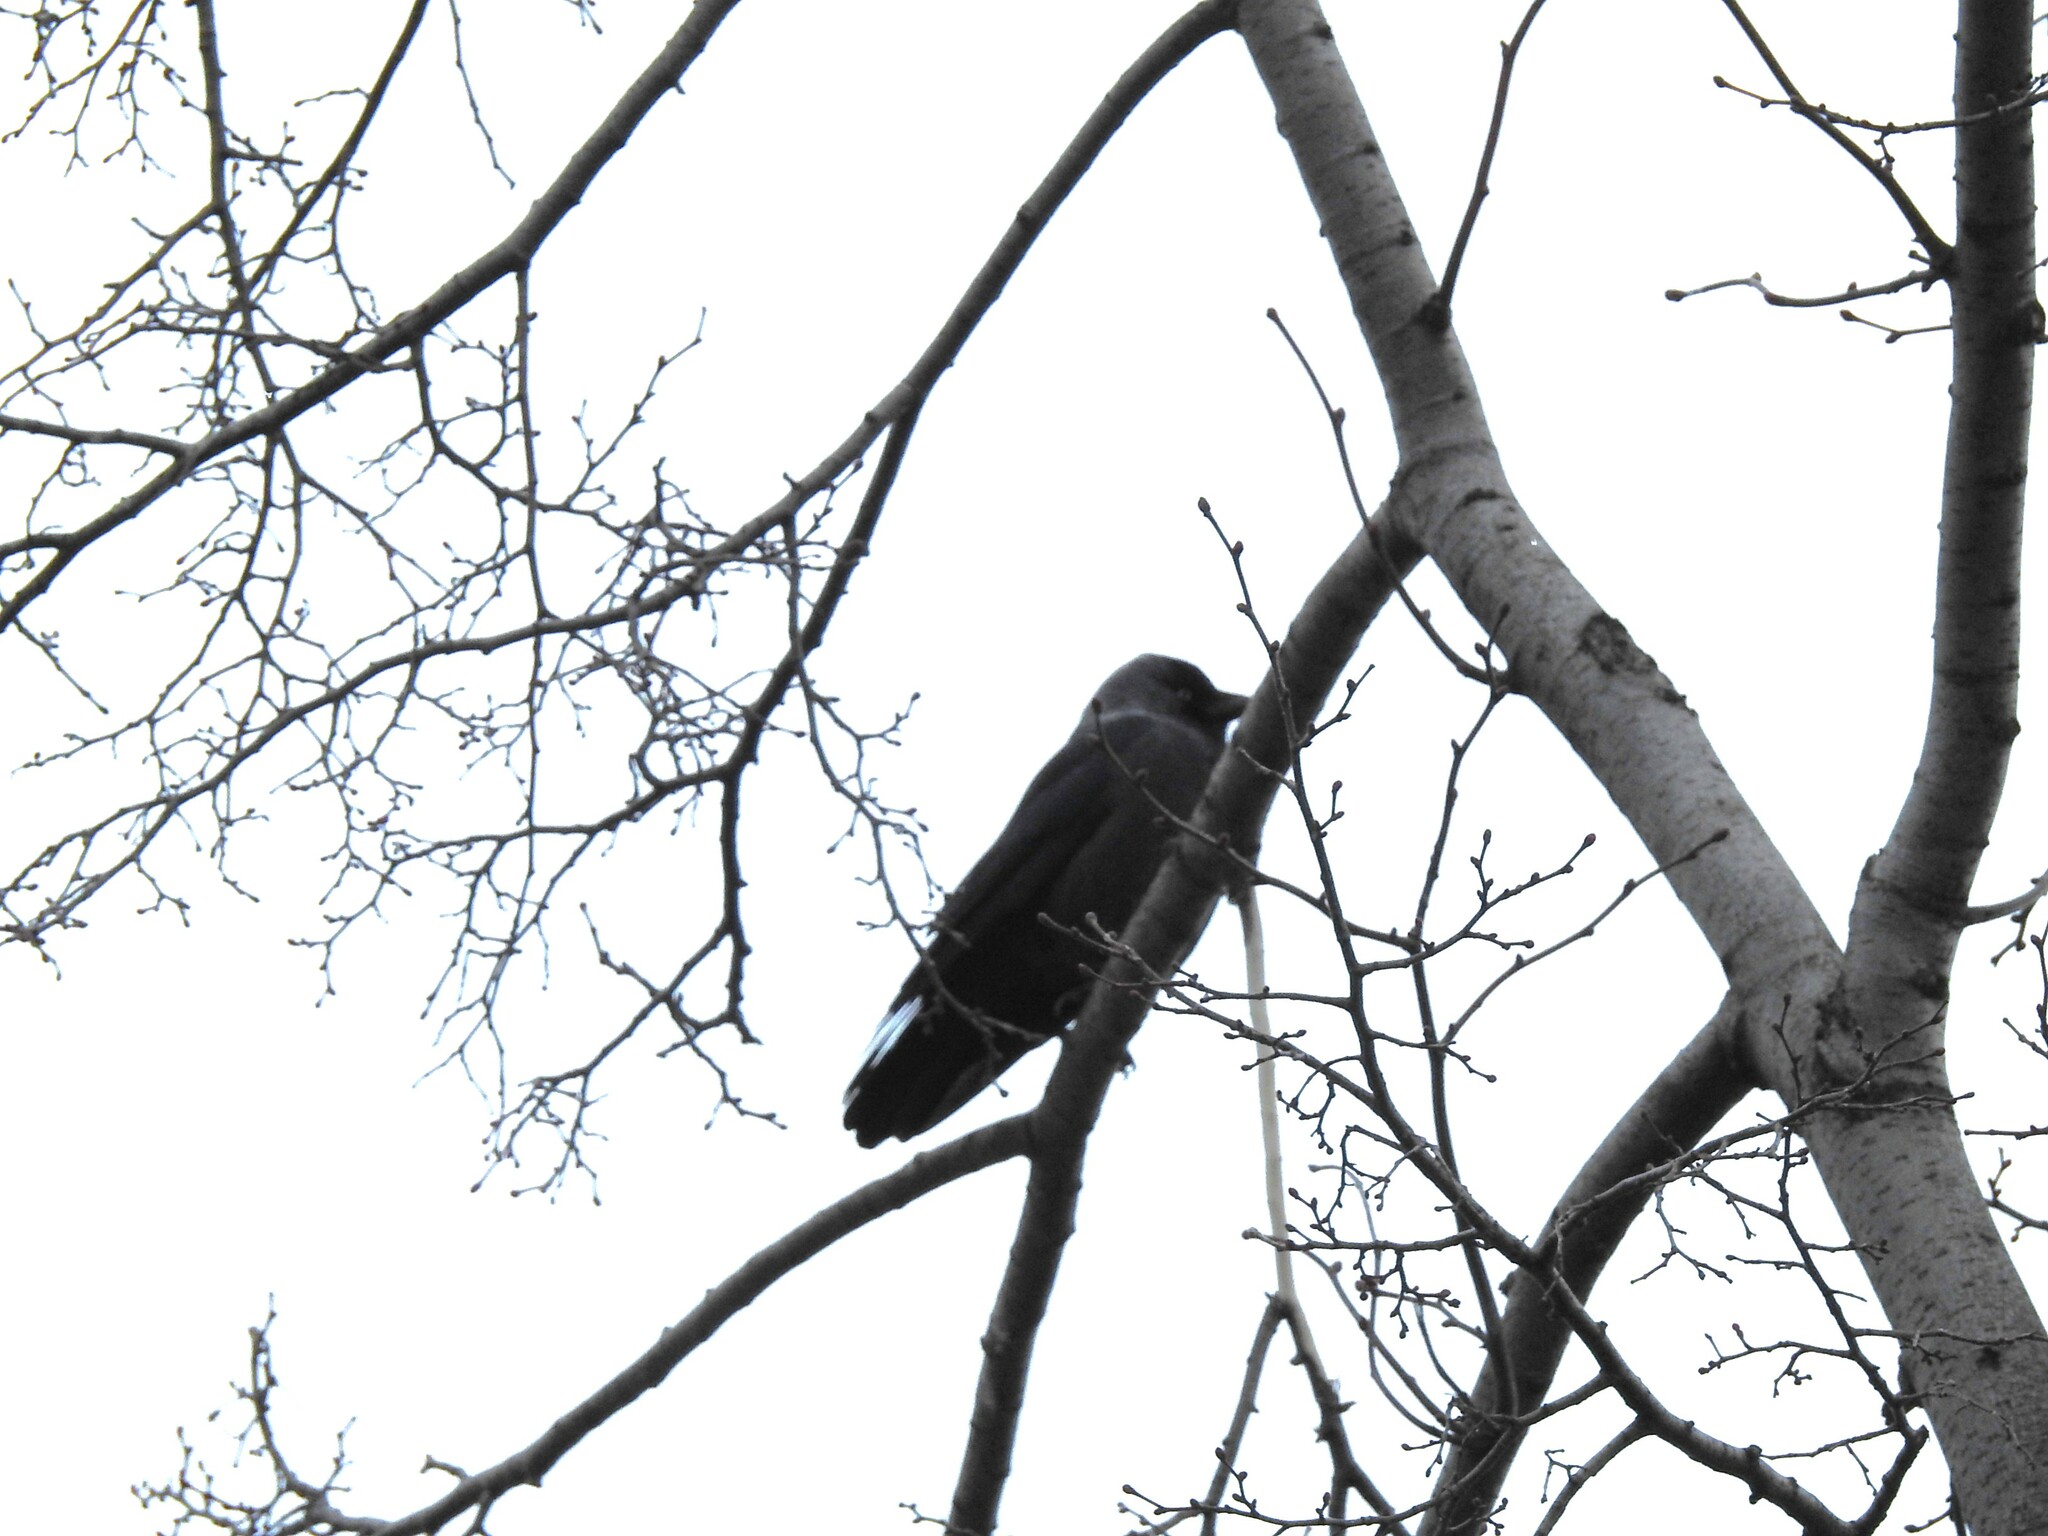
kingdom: Animalia
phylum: Chordata
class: Aves
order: Passeriformes
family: Corvidae
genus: Coloeus
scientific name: Coloeus monedula
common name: Western jackdaw
